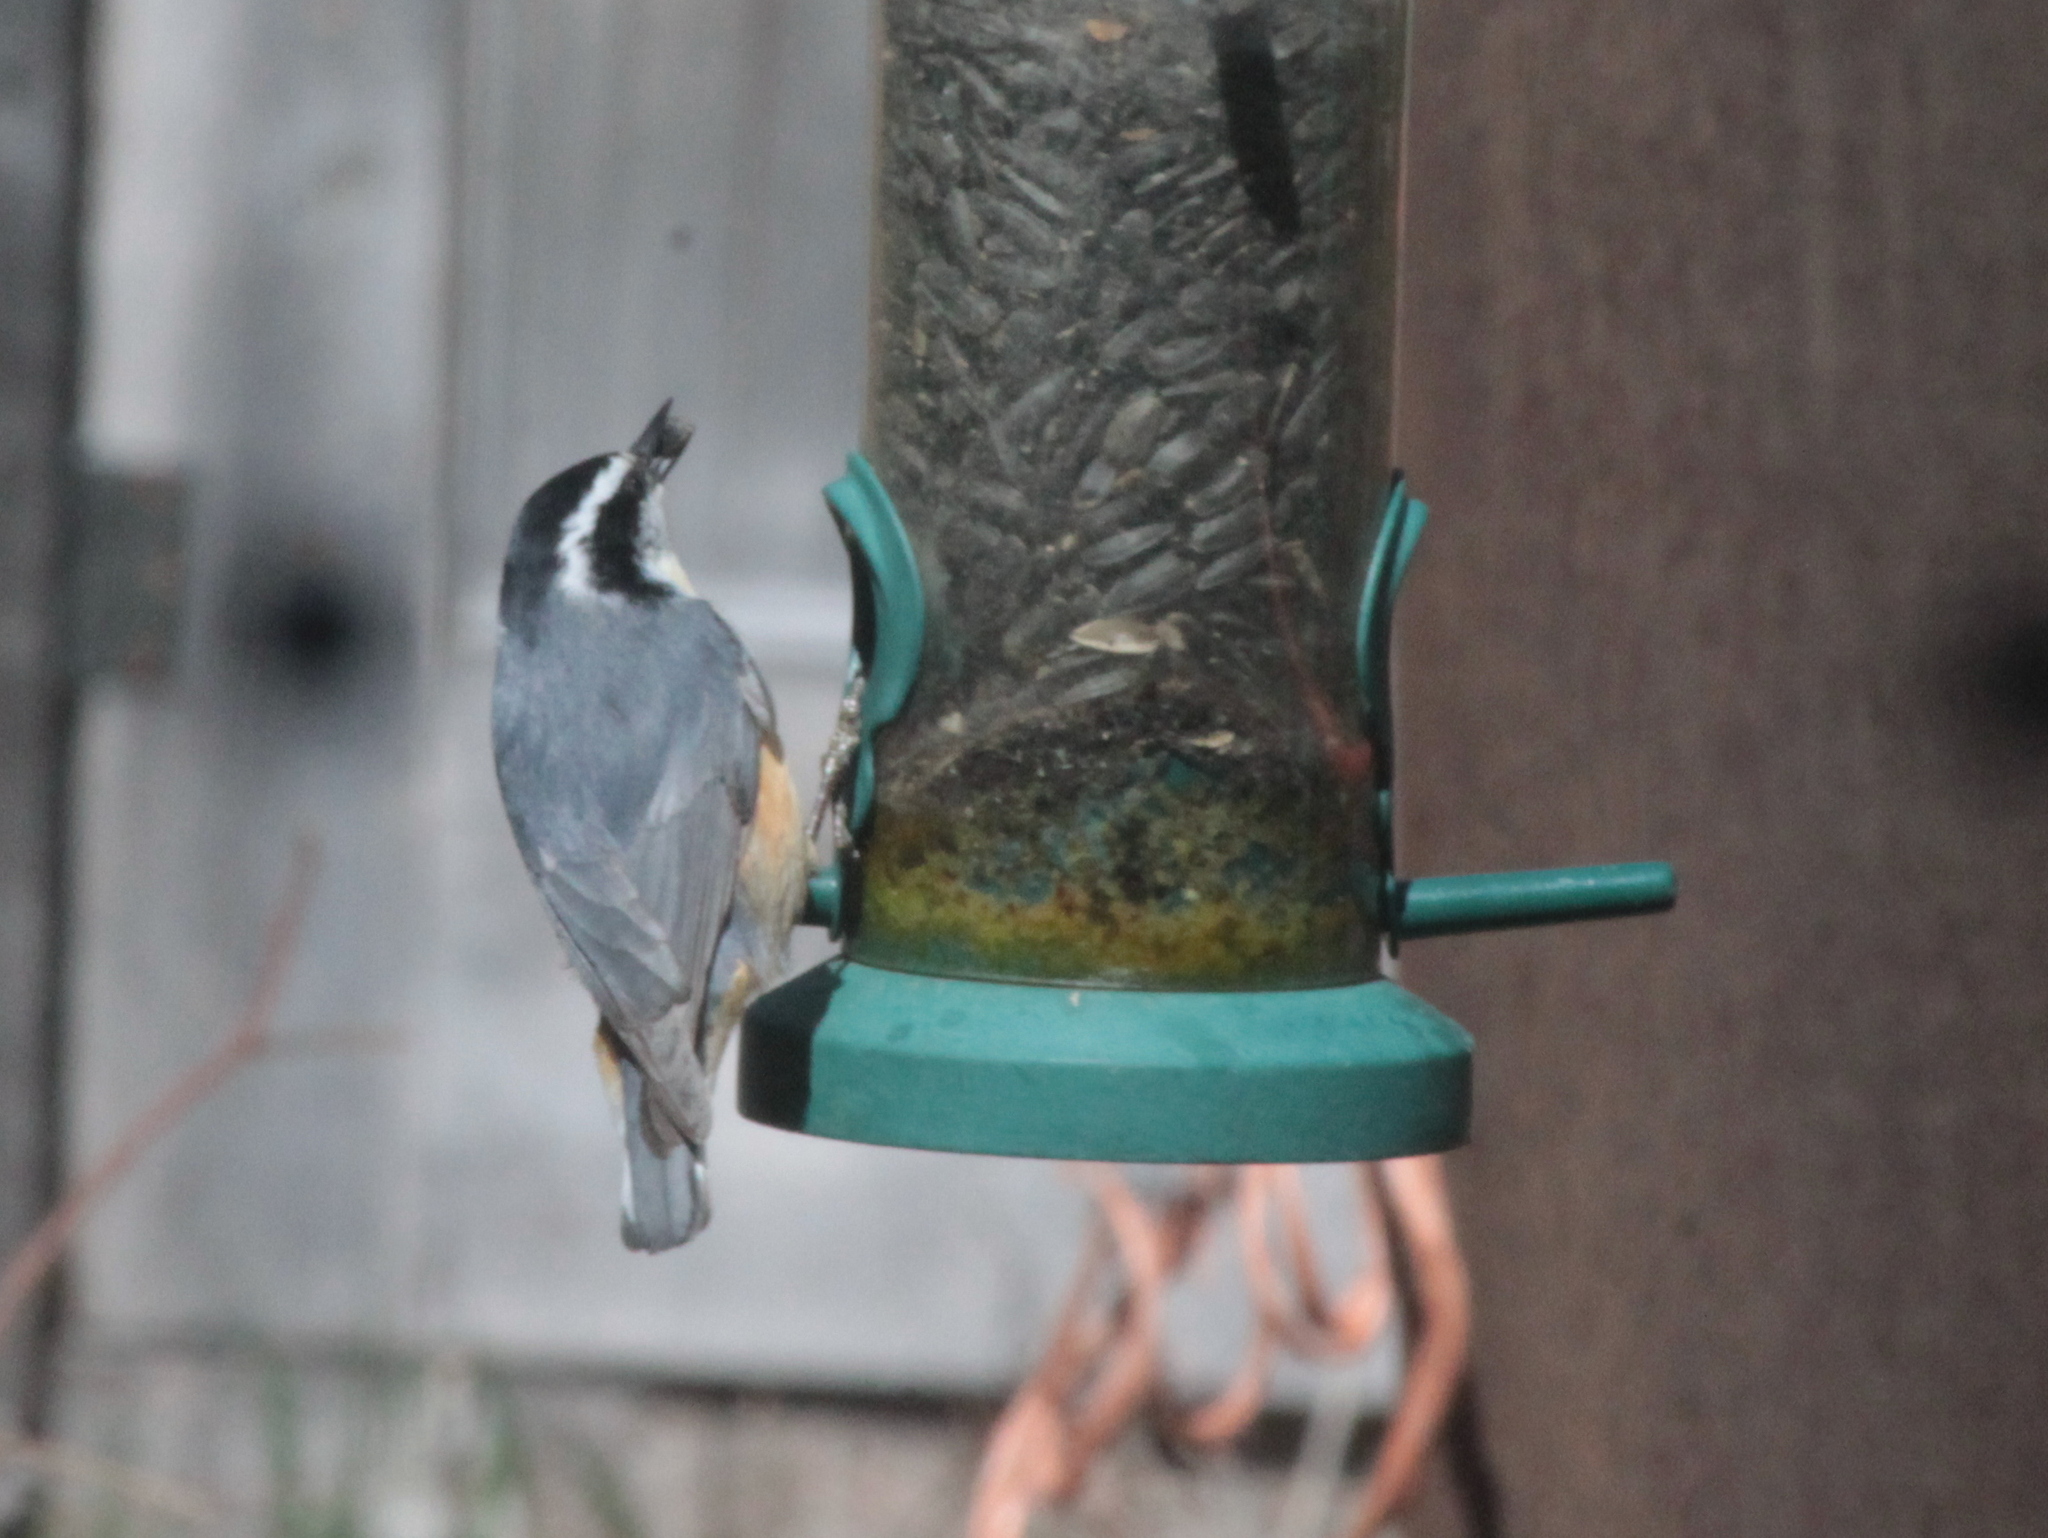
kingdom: Animalia
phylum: Chordata
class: Aves
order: Passeriformes
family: Sittidae
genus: Sitta
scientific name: Sitta canadensis
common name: Red-breasted nuthatch
